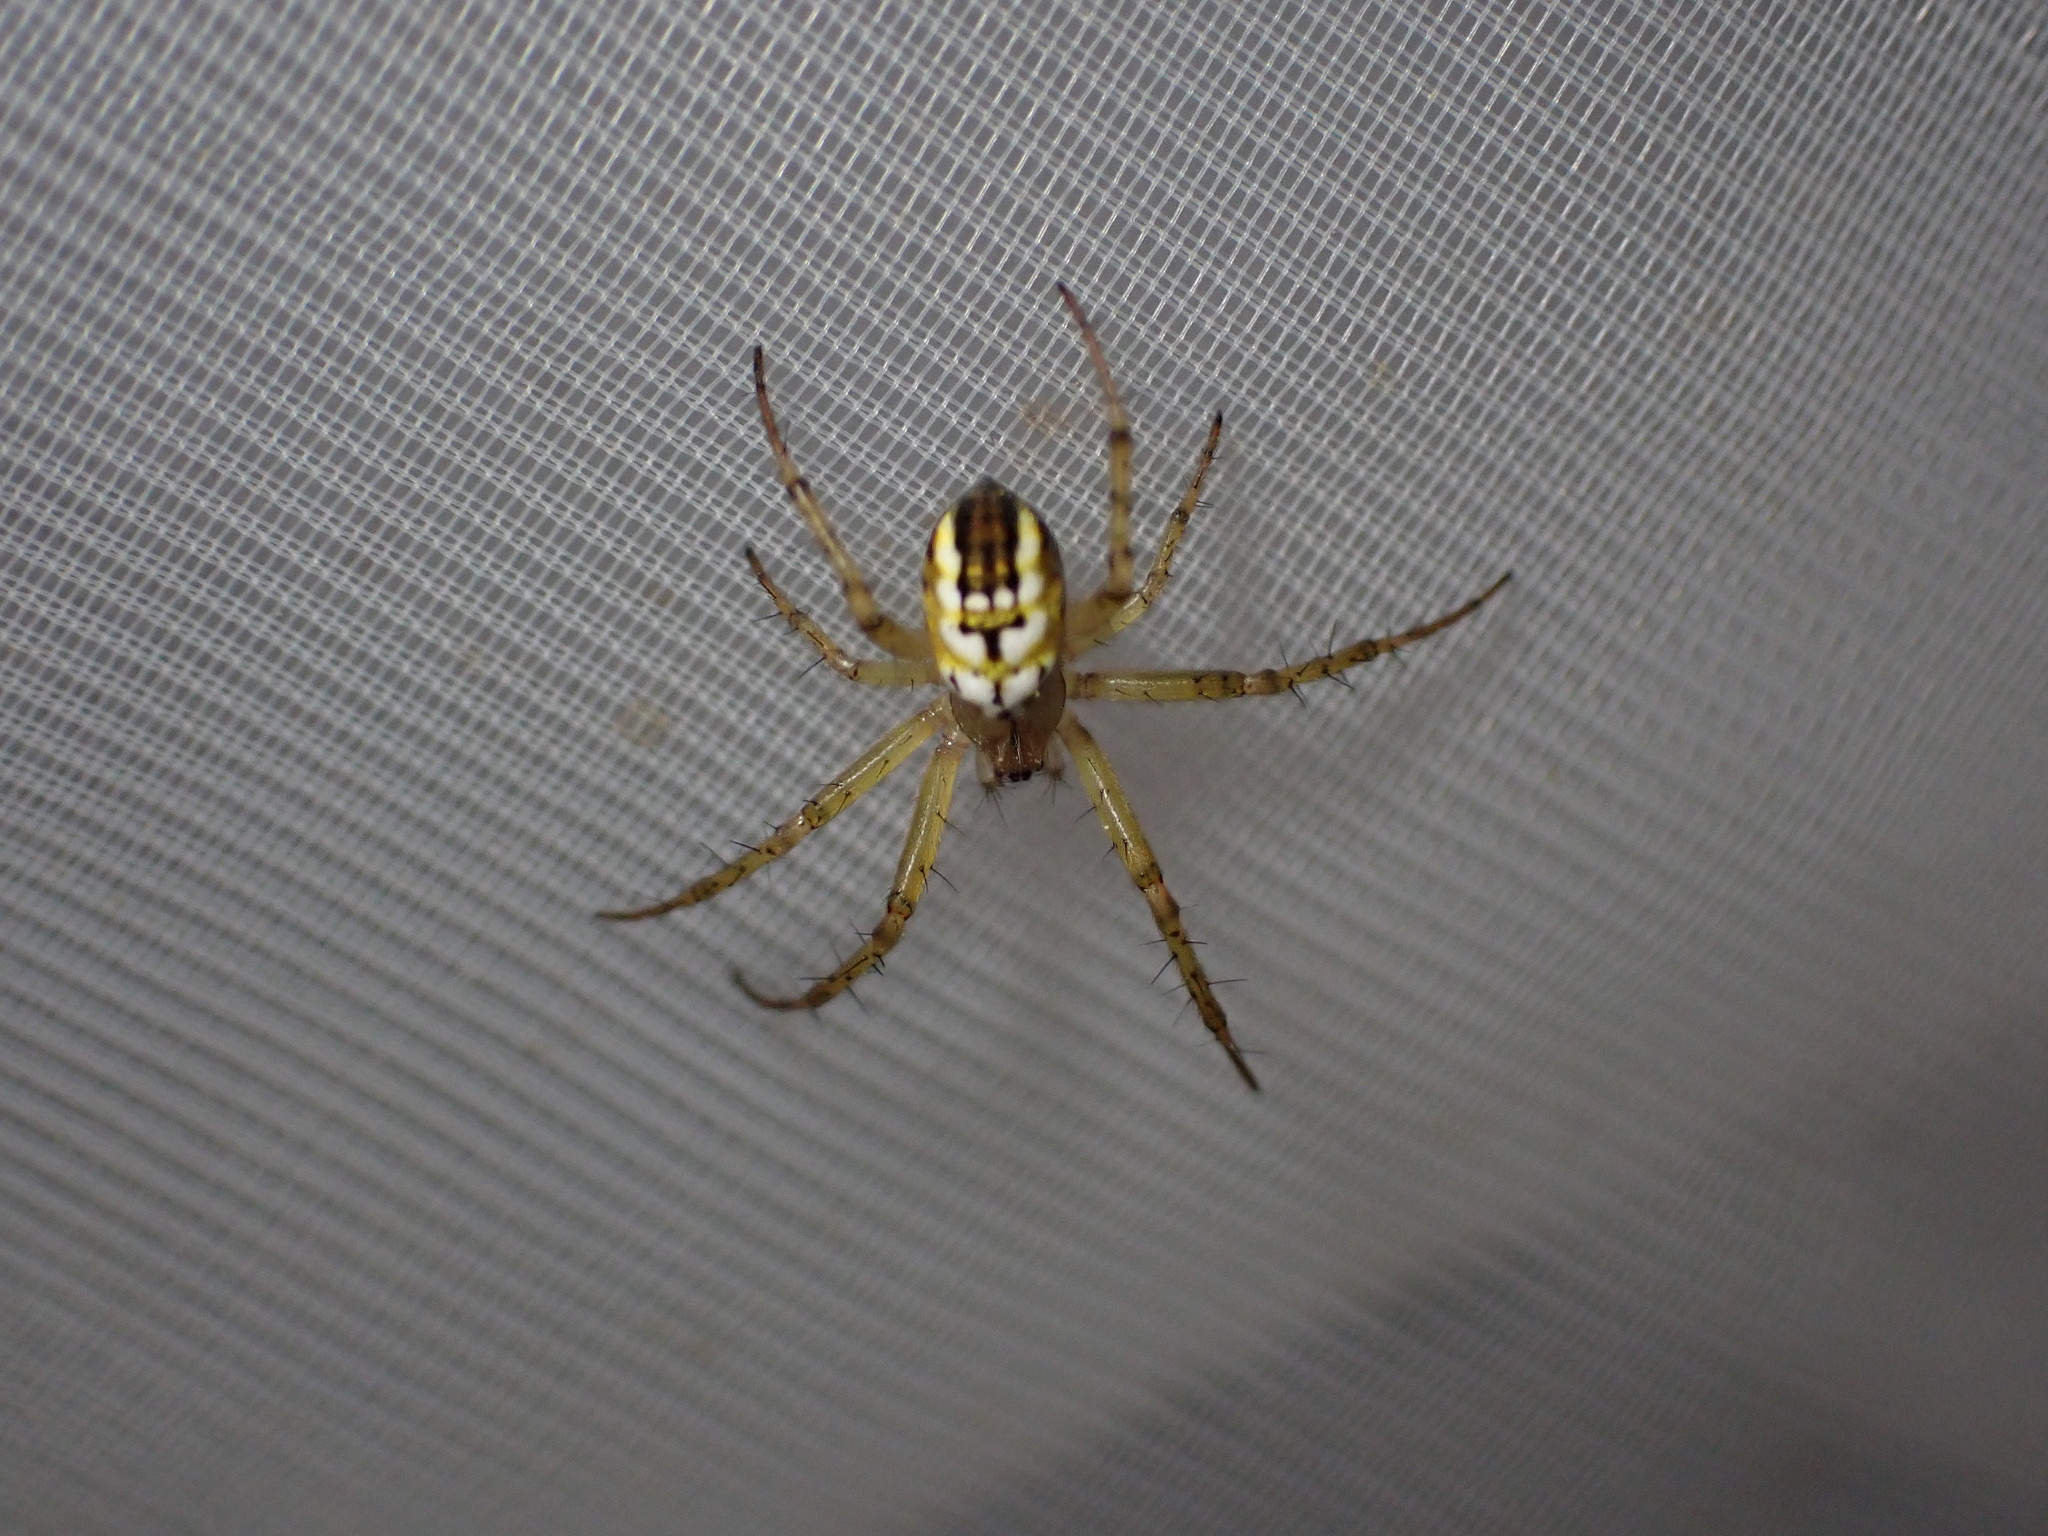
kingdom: Animalia
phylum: Arthropoda
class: Arachnida
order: Araneae
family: Araneidae
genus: Mangora
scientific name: Mangora acalypha
